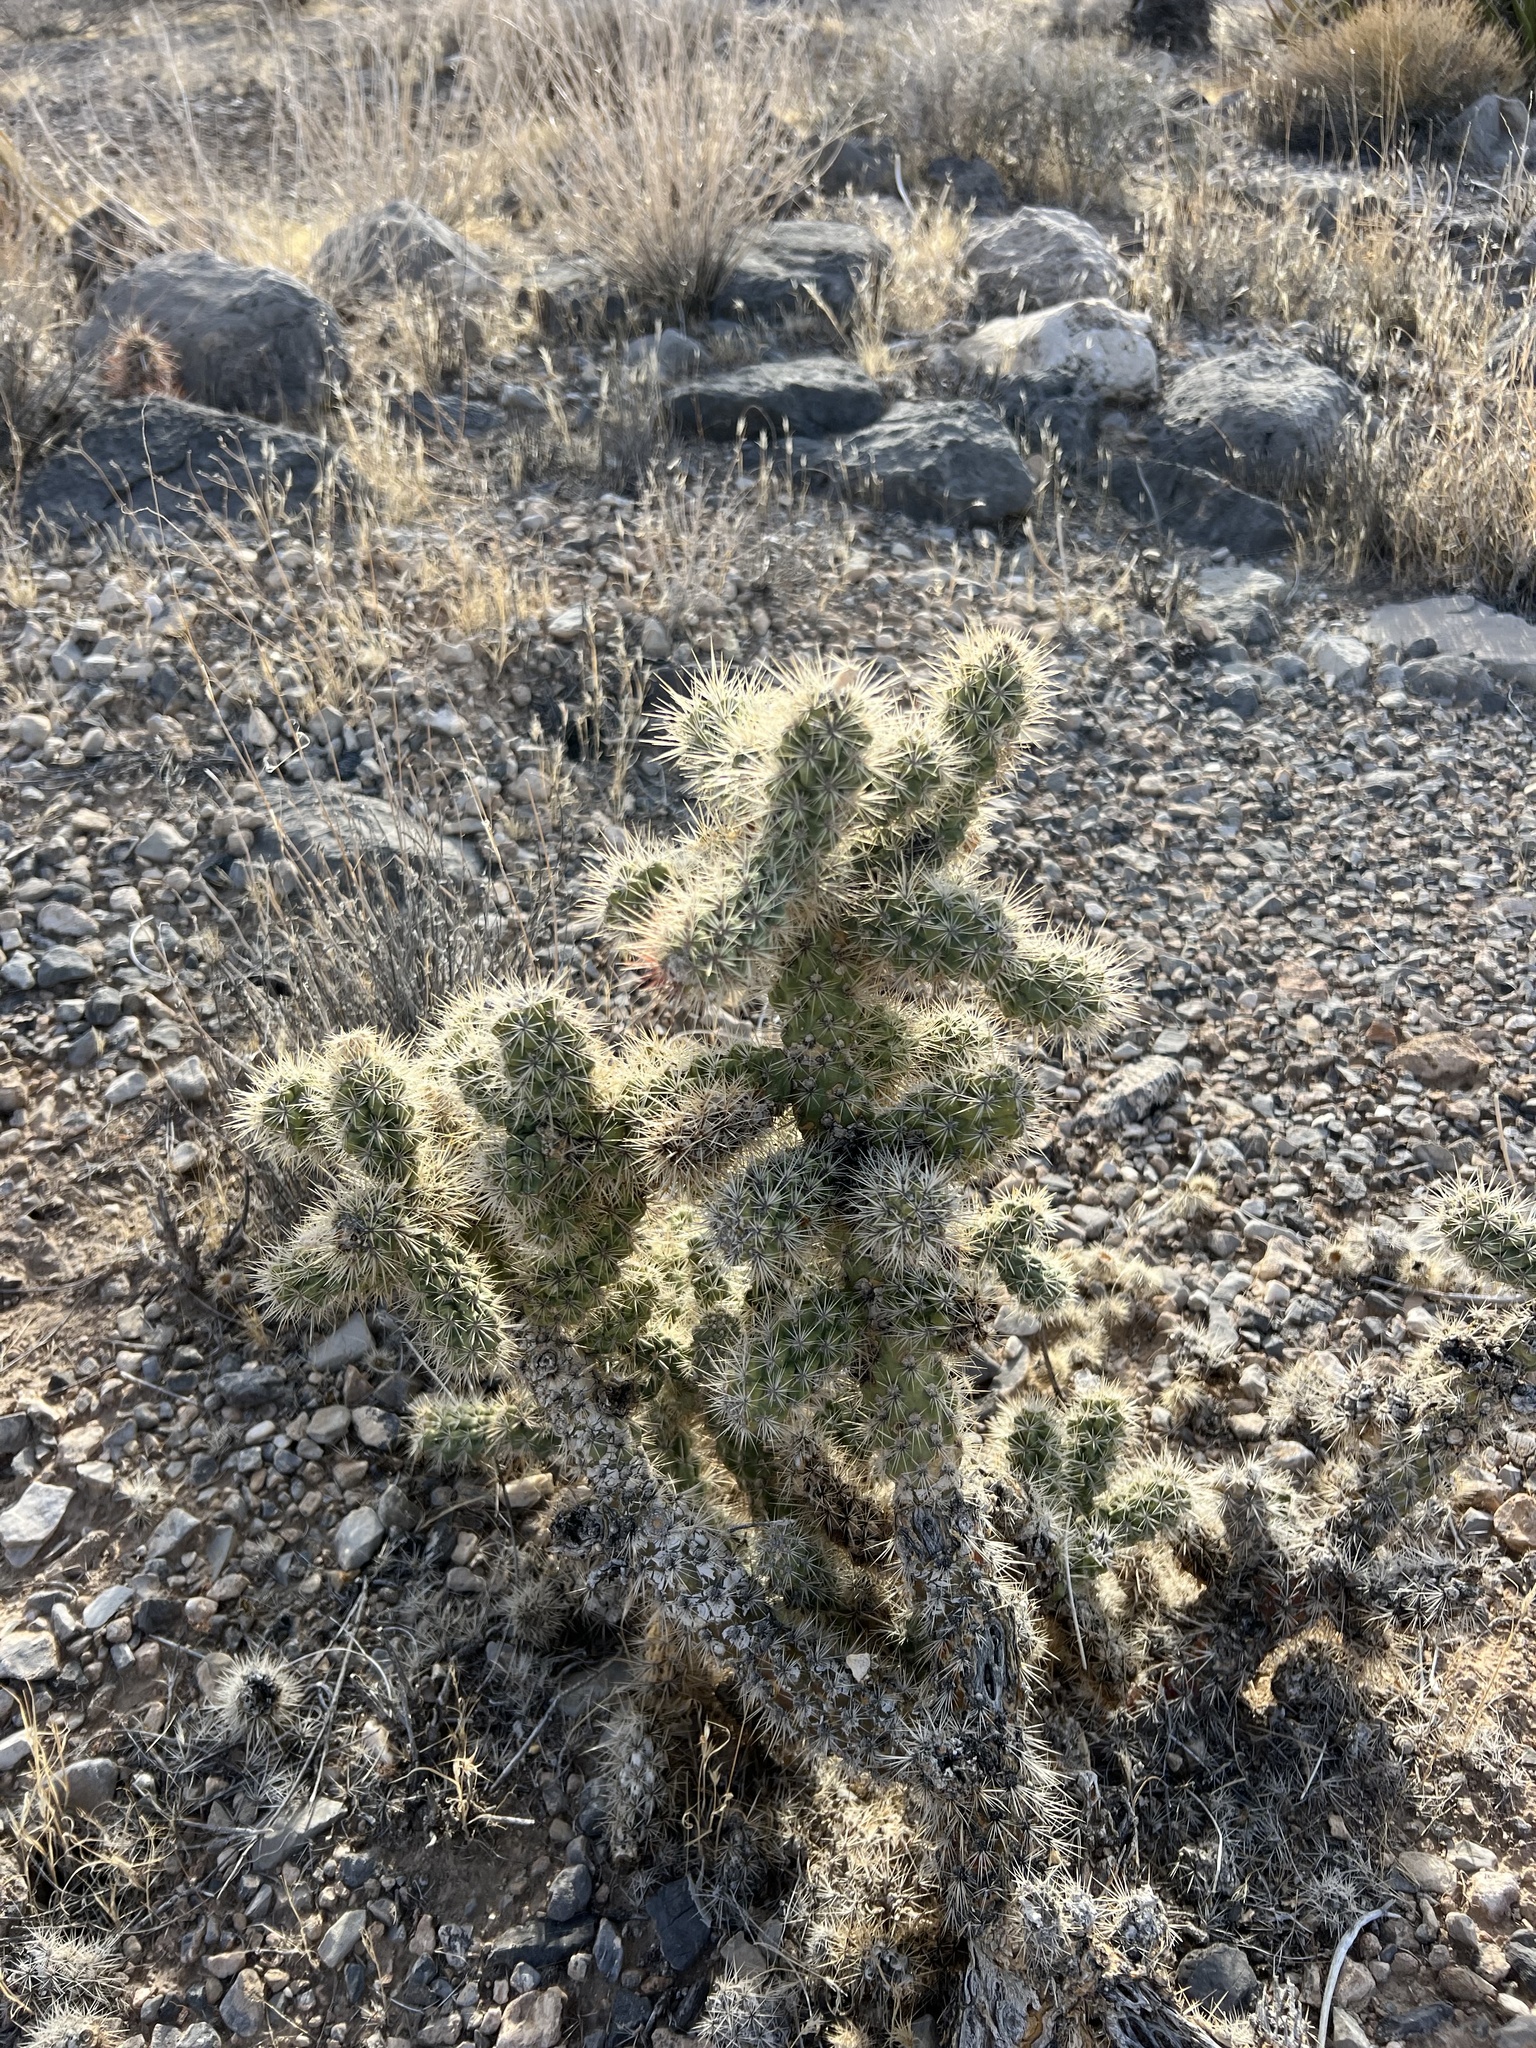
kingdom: Plantae
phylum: Tracheophyta
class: Magnoliopsida
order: Caryophyllales
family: Cactaceae
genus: Cylindropuntia
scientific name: Cylindropuntia echinocarpa
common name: Ground cholla
